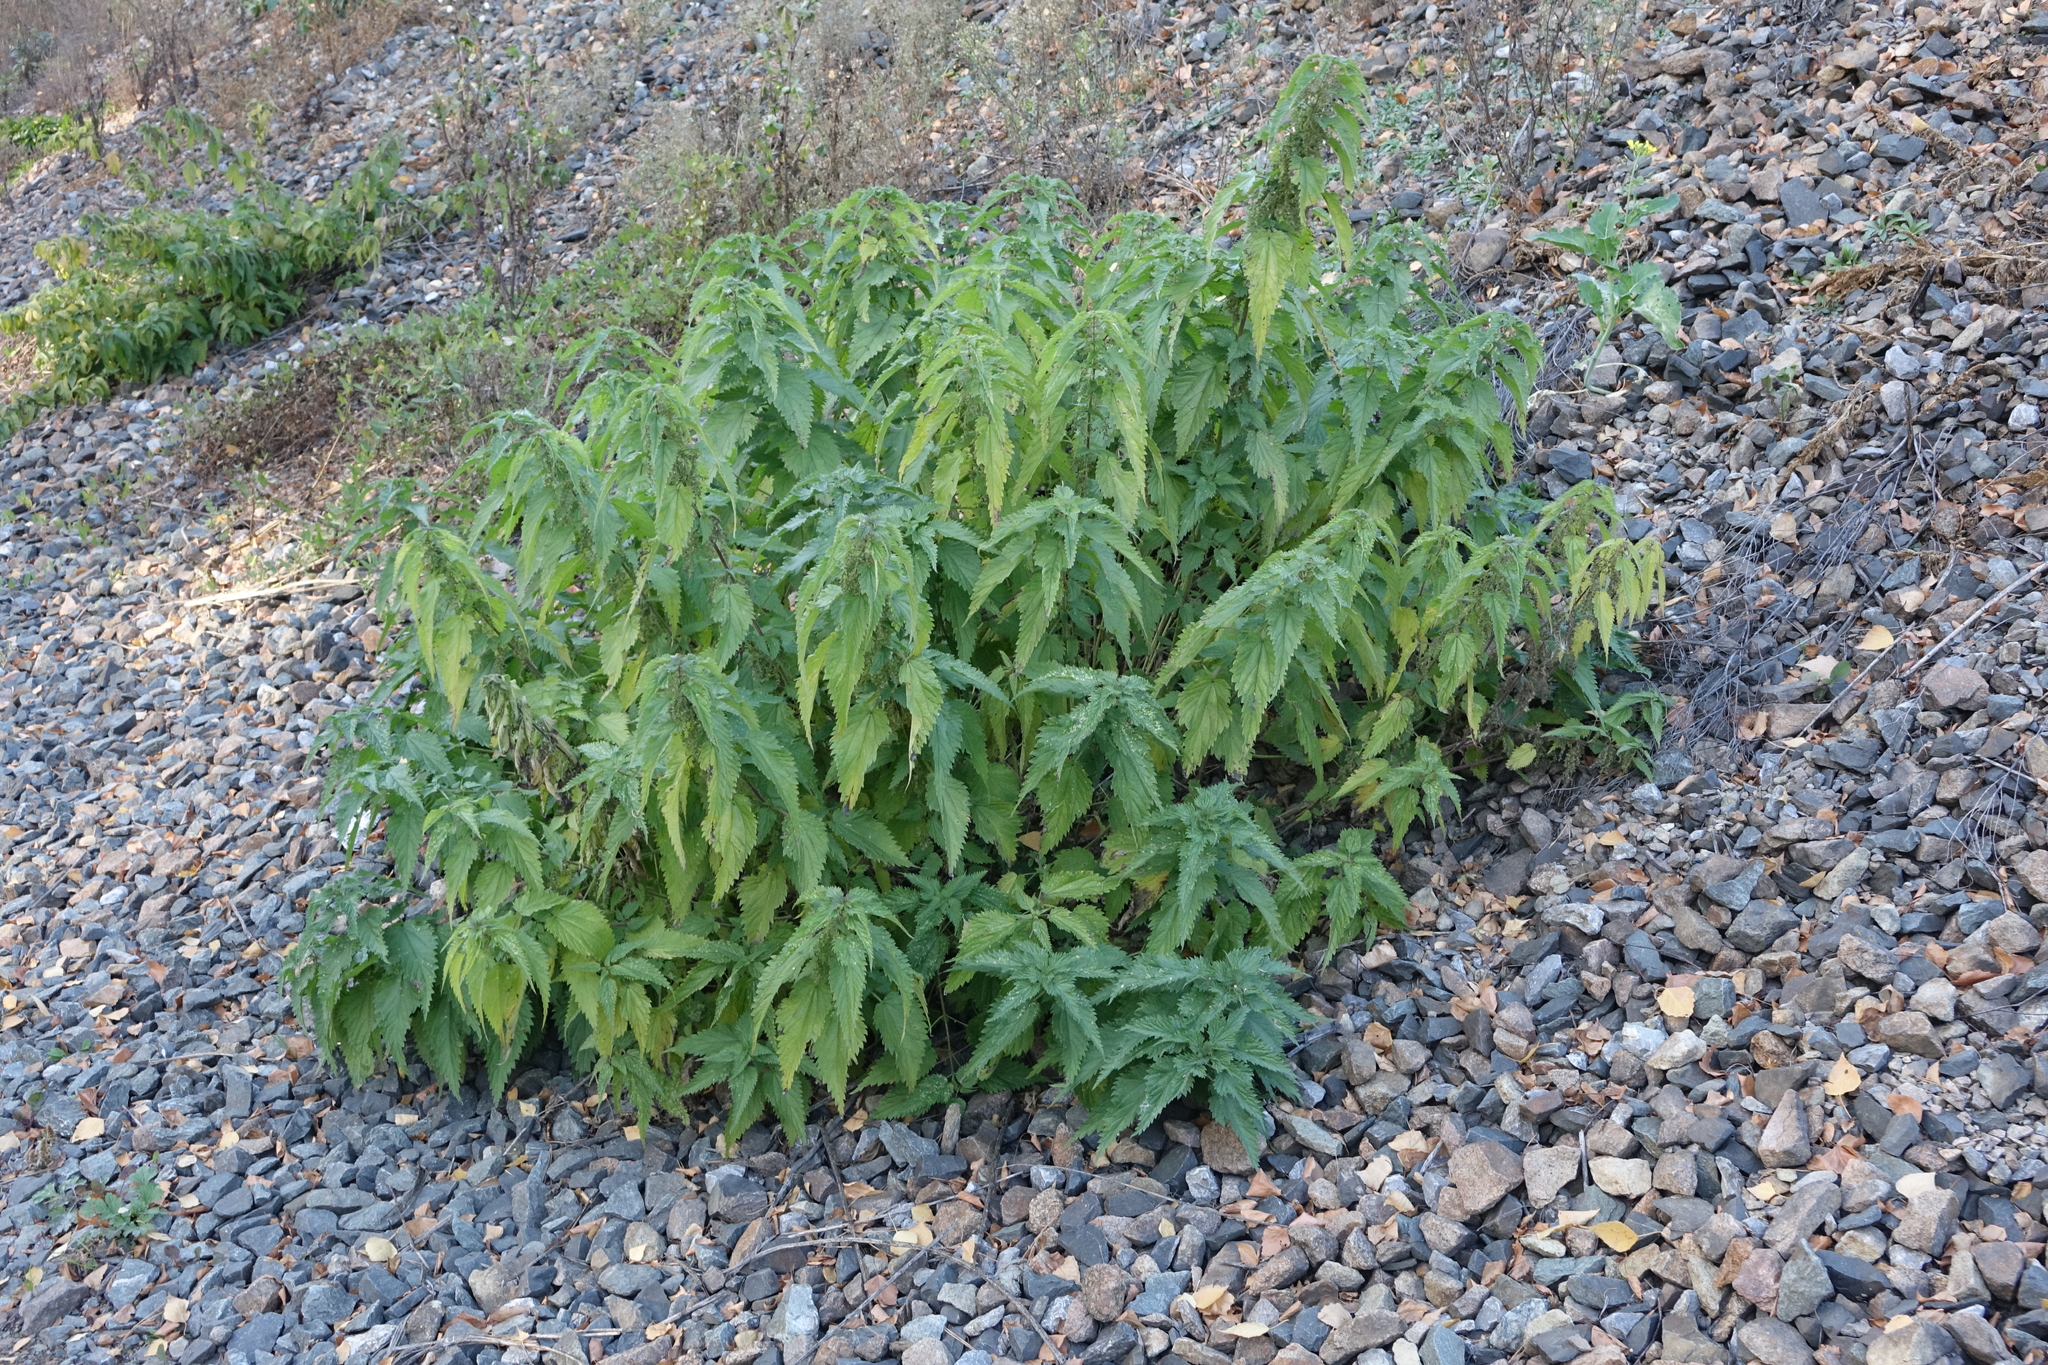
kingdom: Plantae
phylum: Tracheophyta
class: Magnoliopsida
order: Rosales
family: Urticaceae
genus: Urtica
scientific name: Urtica dioica
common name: Common nettle
